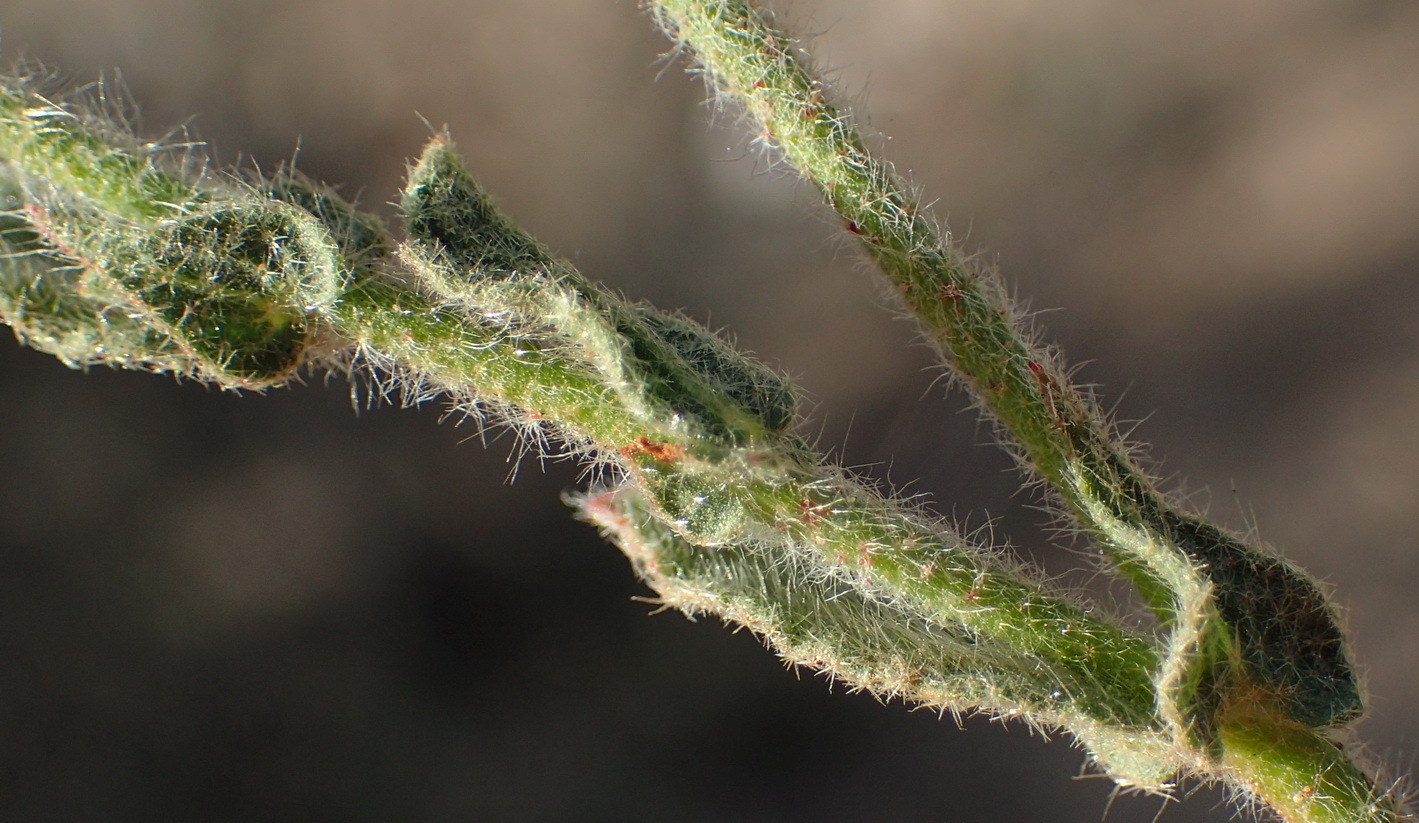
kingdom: Plantae
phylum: Tracheophyta
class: Magnoliopsida
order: Malvales
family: Malvaceae
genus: Hermannia
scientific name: Hermannia stipulacea
